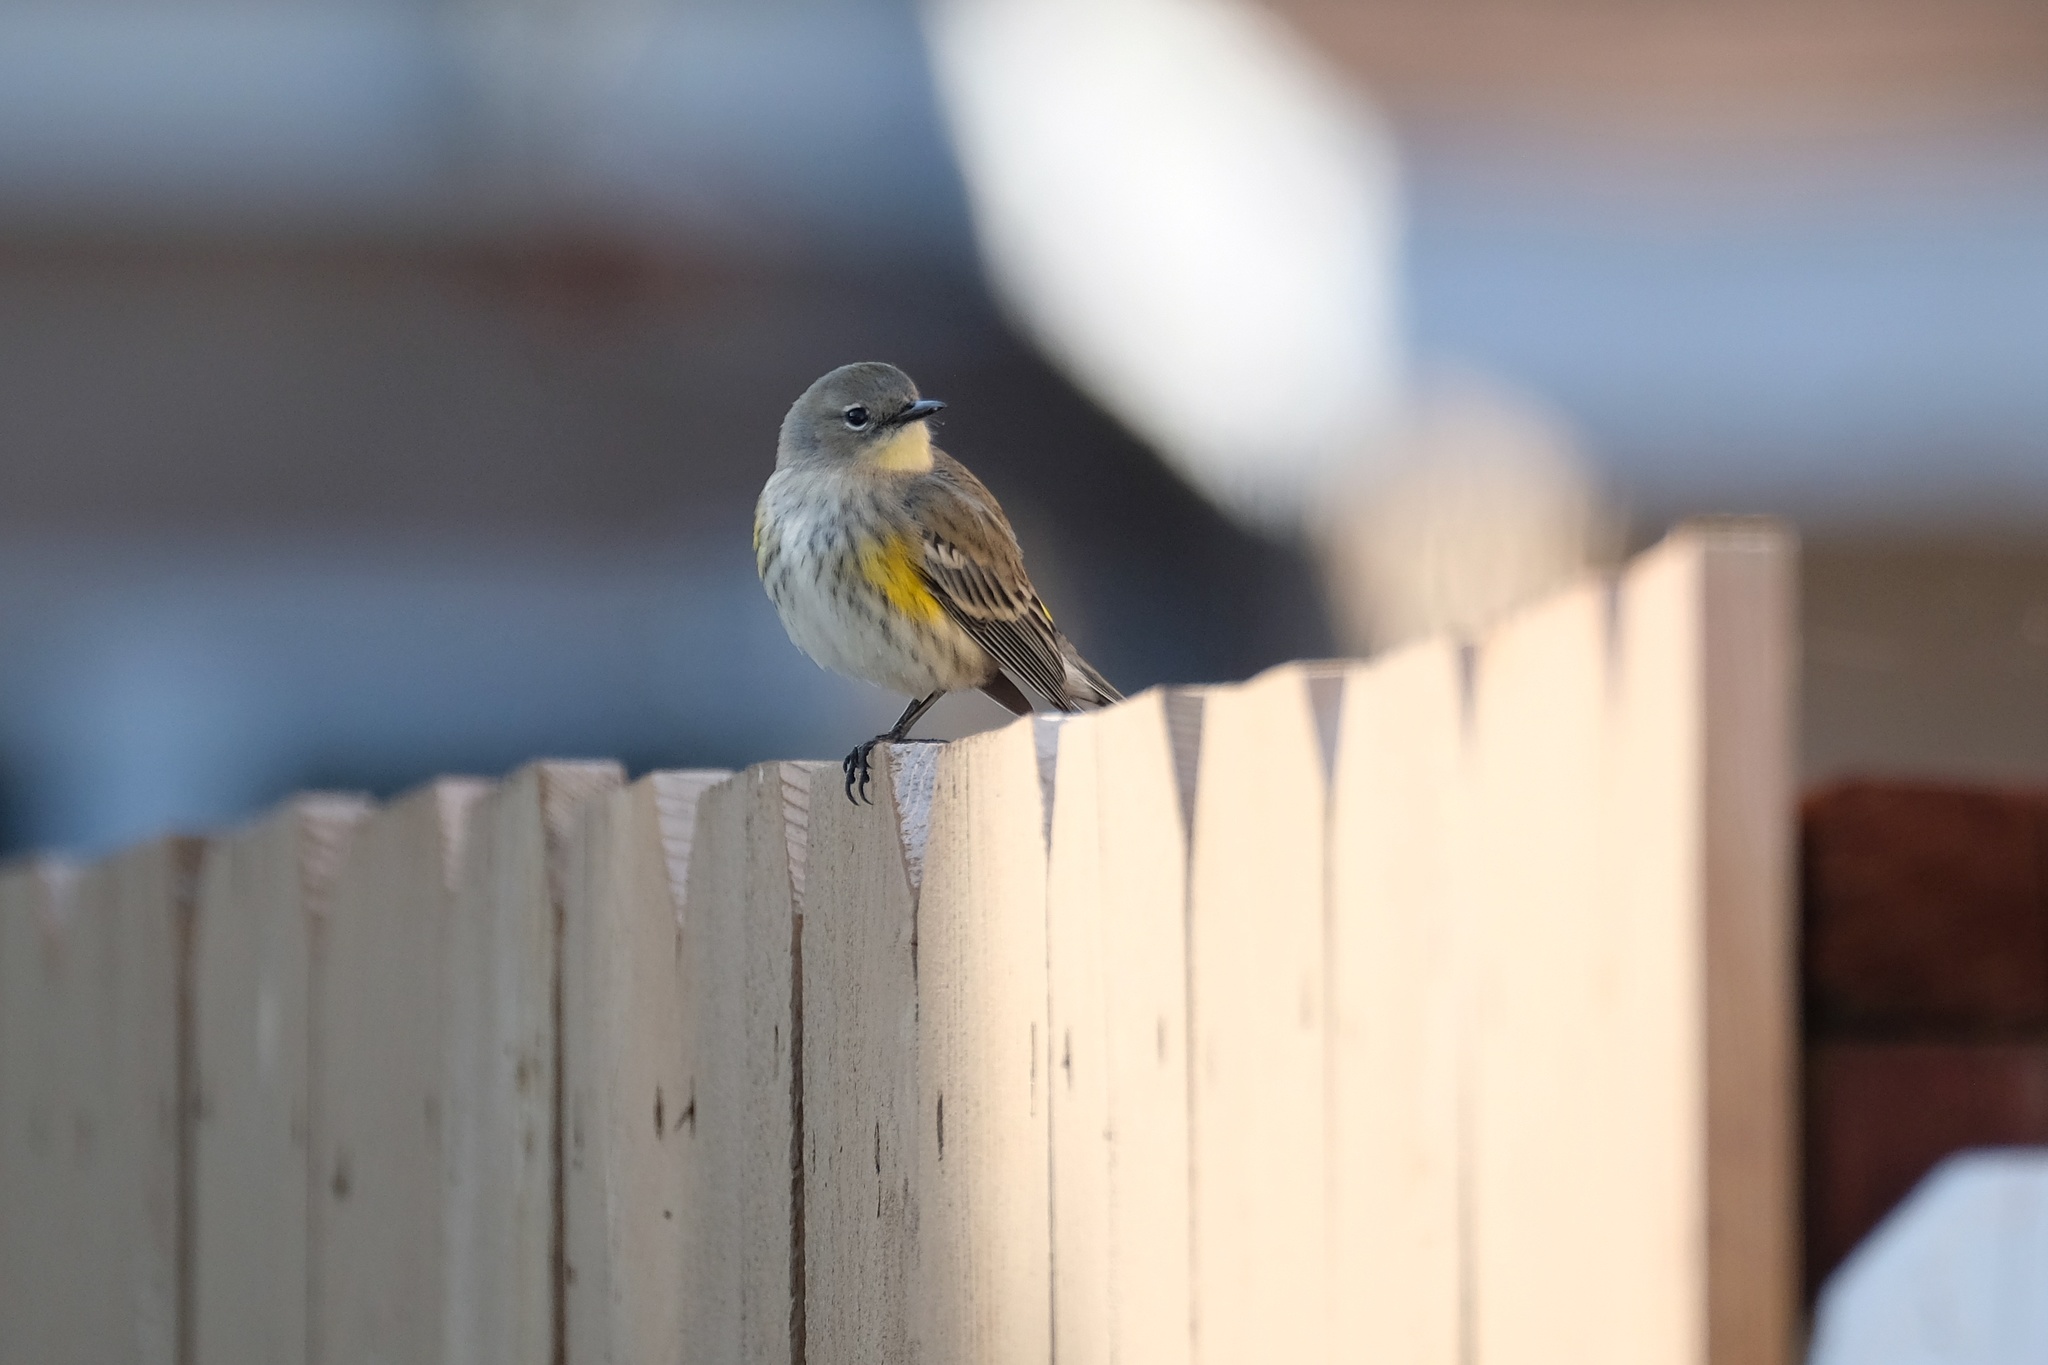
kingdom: Animalia
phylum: Chordata
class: Aves
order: Passeriformes
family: Parulidae
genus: Setophaga
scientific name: Setophaga coronata
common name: Myrtle warbler
